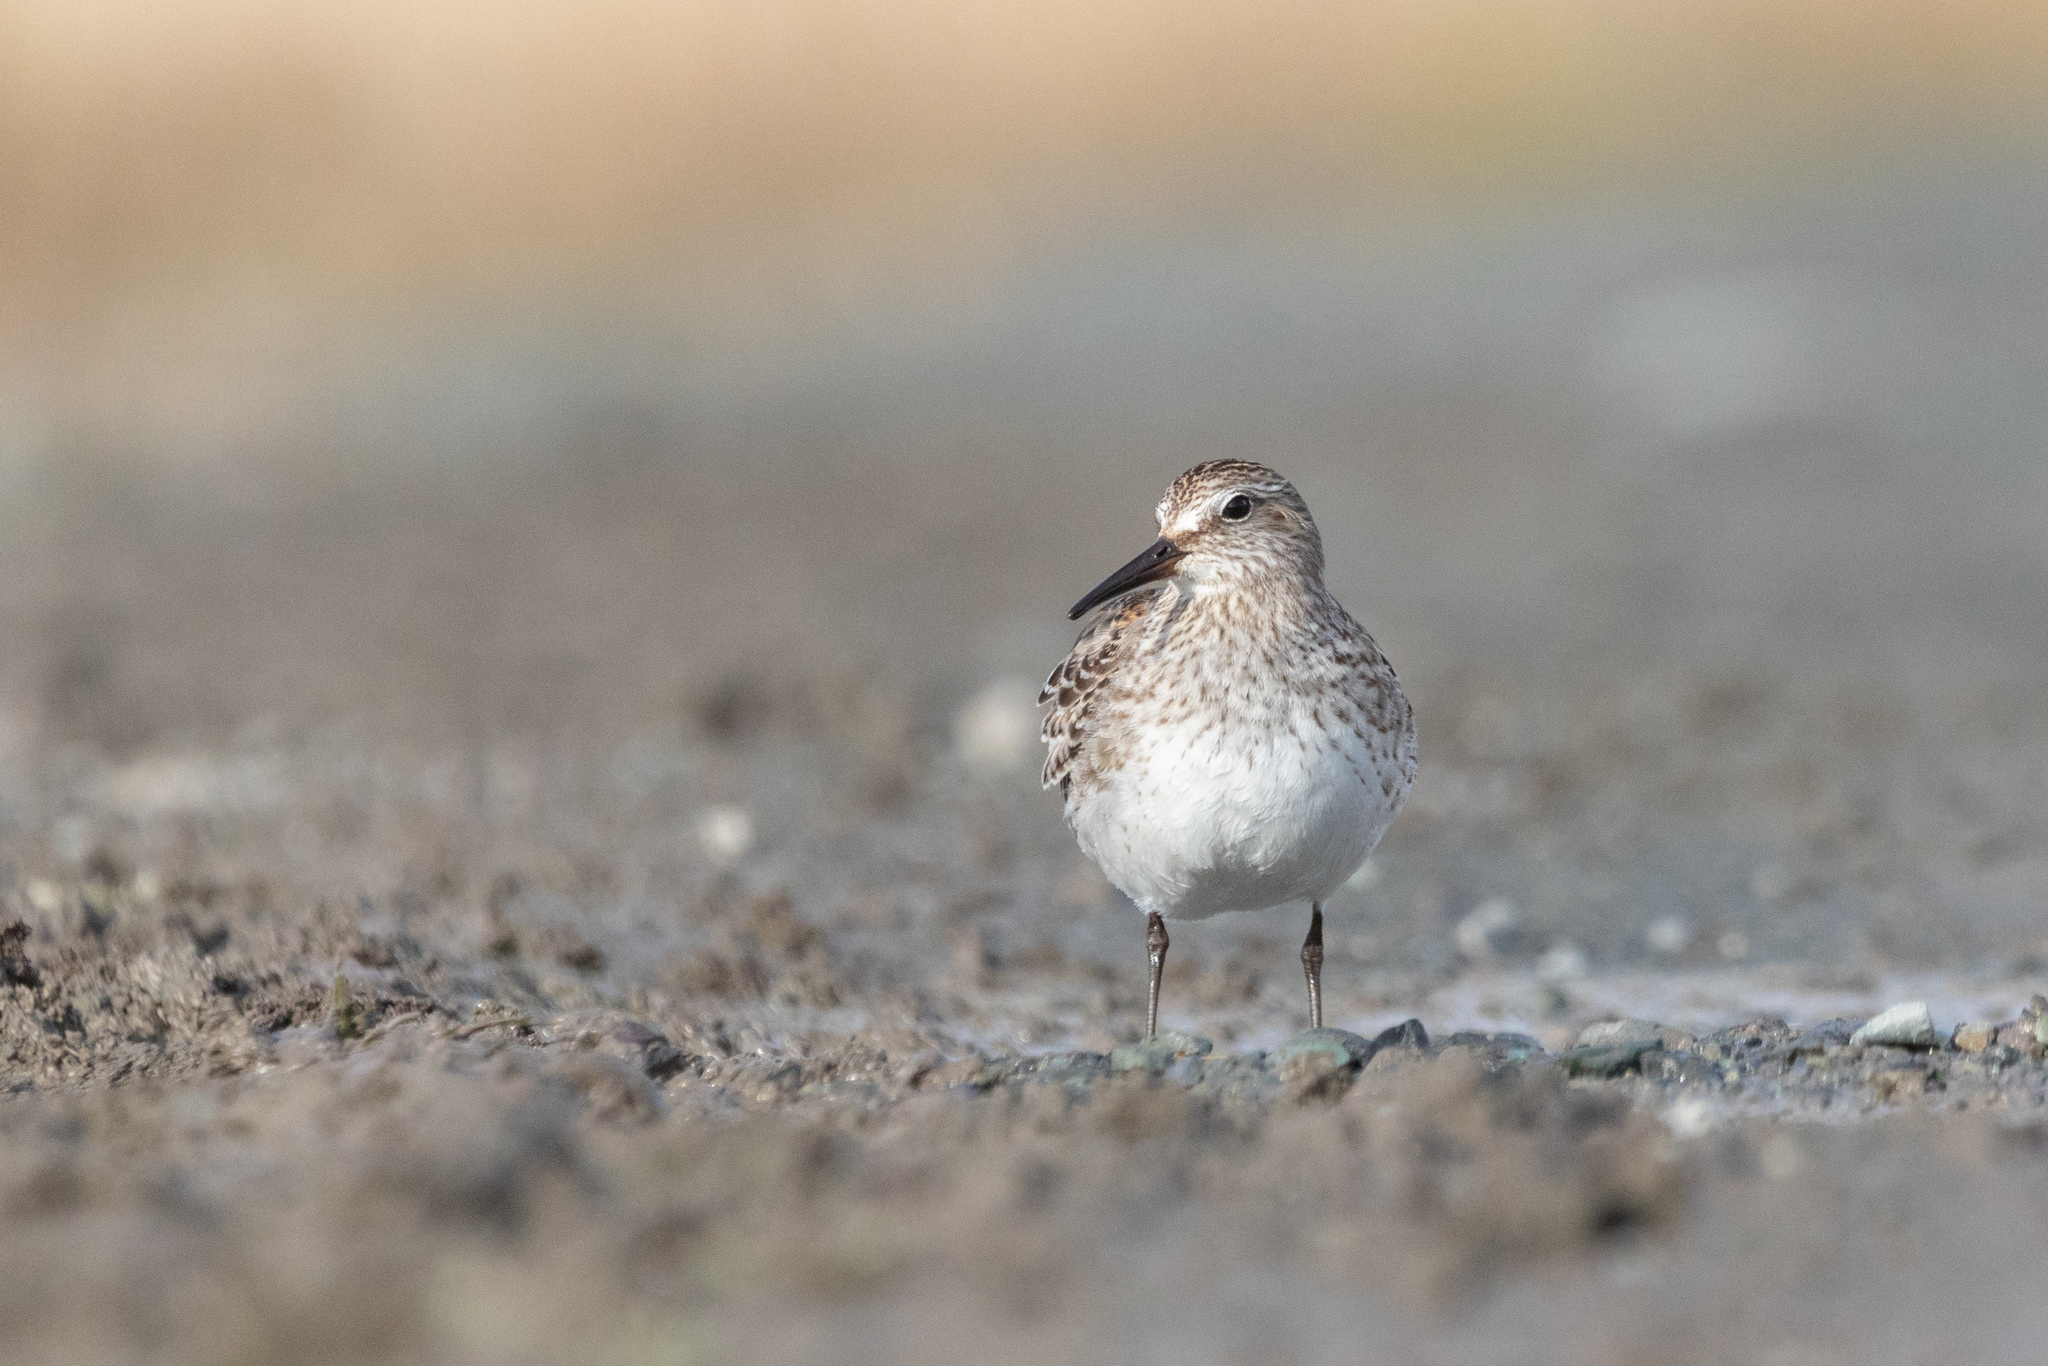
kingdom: Animalia
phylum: Chordata
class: Aves
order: Charadriiformes
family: Scolopacidae
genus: Calidris
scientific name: Calidris fuscicollis
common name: White-rumped sandpiper
